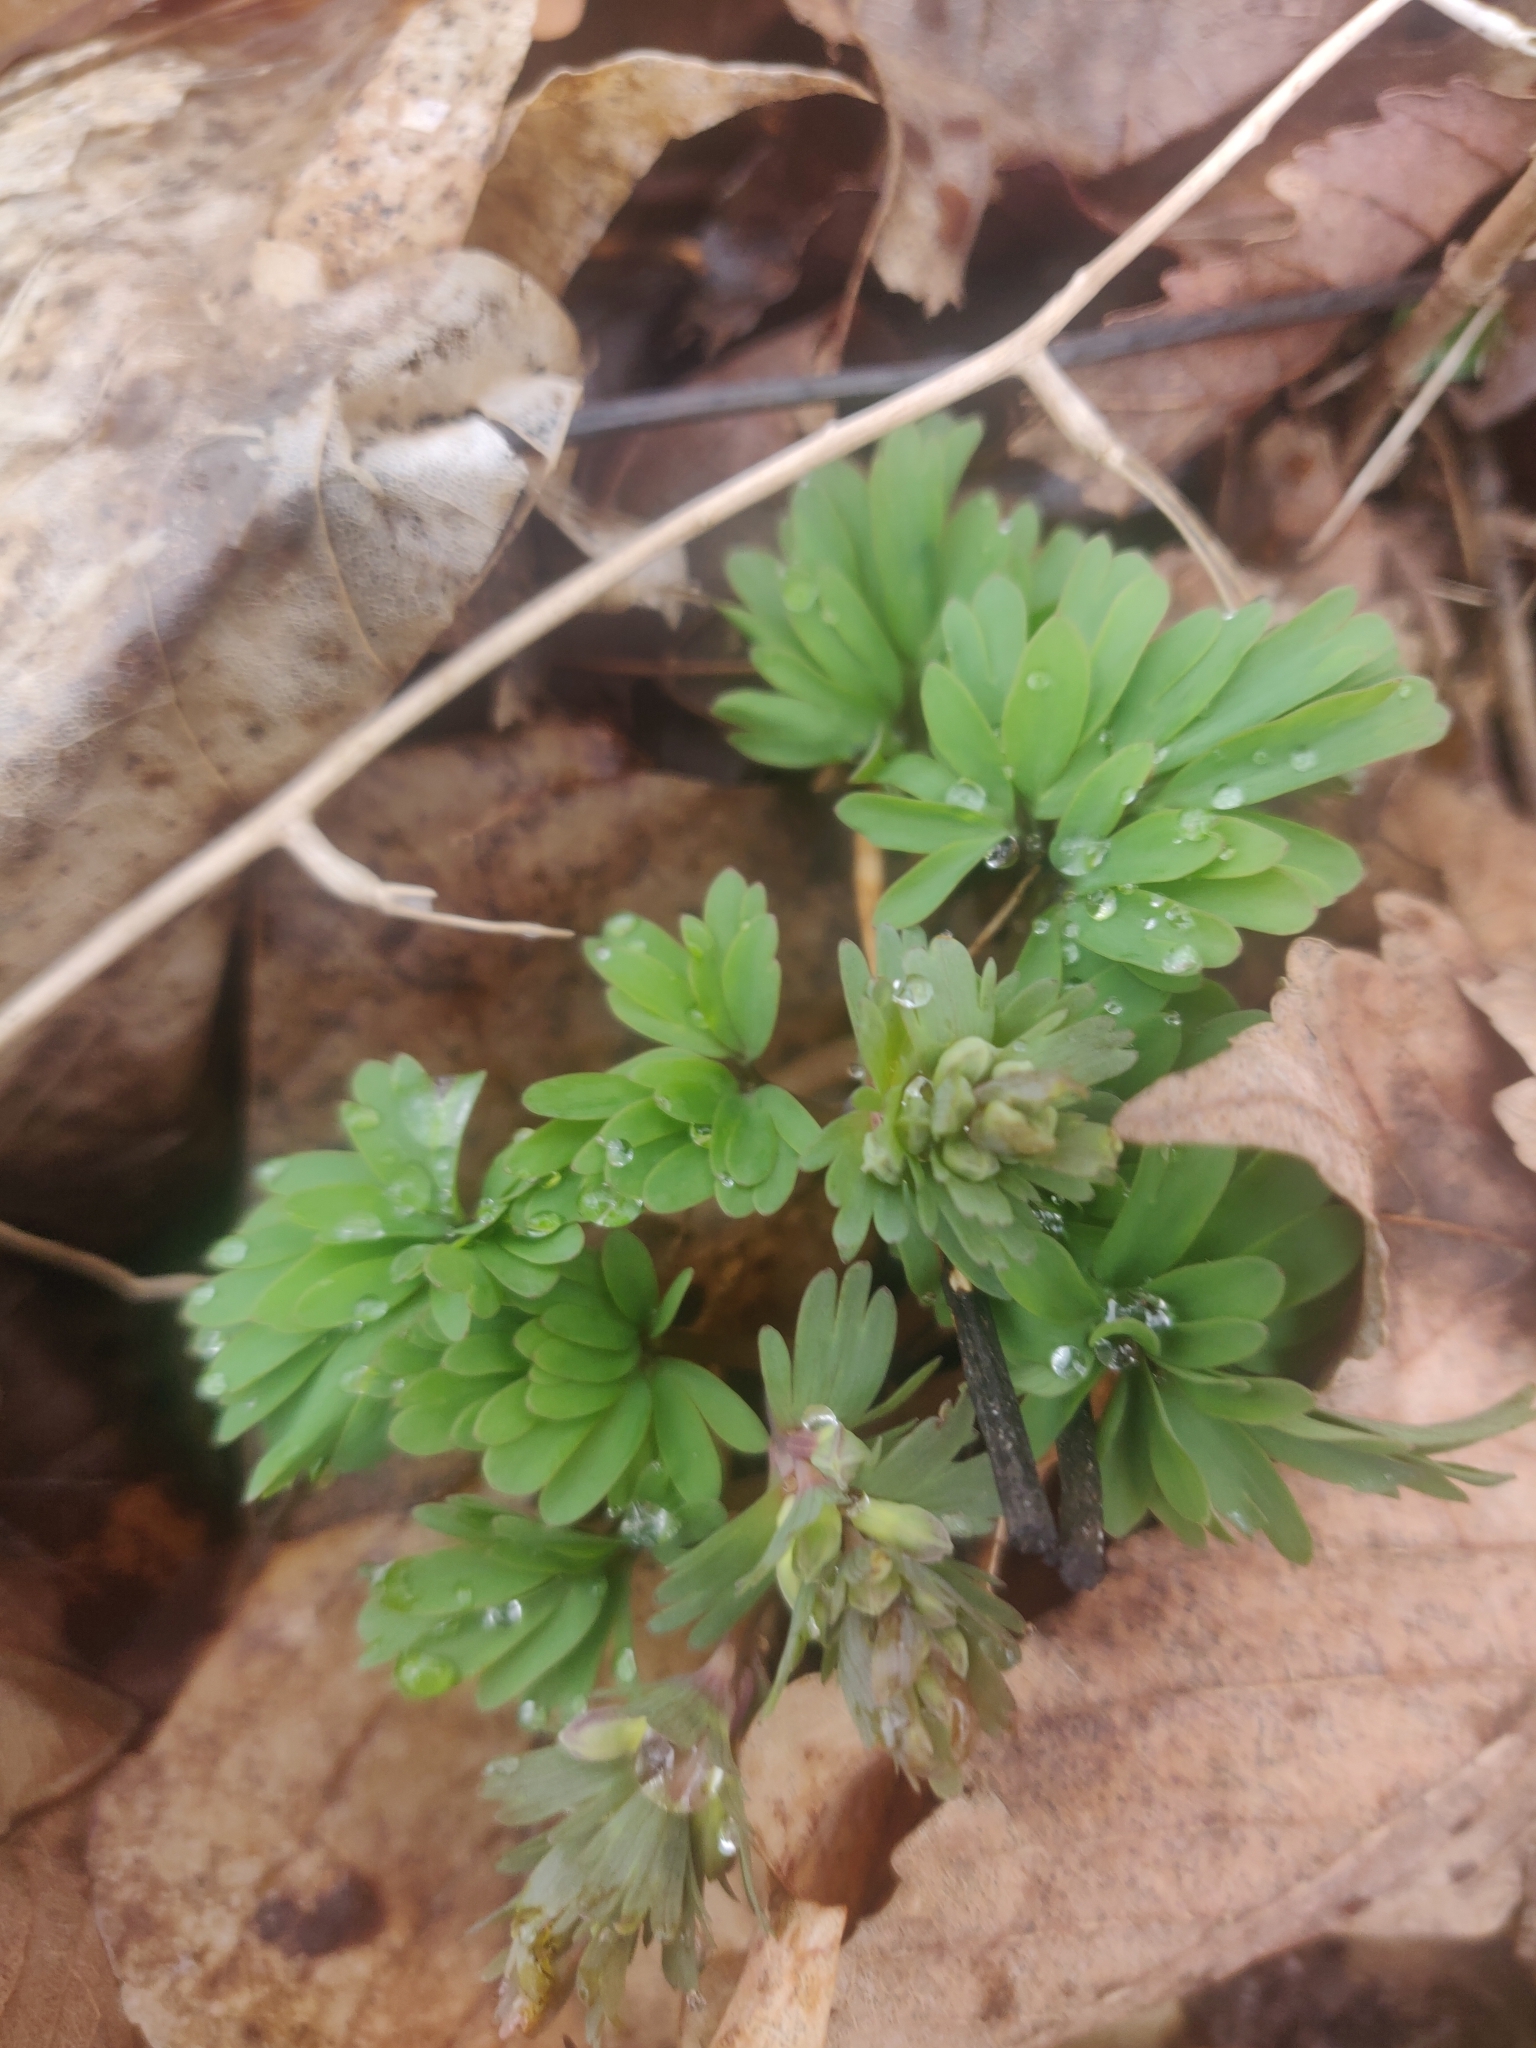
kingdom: Plantae
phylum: Tracheophyta
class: Magnoliopsida
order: Ranunculales
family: Papaveraceae
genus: Corydalis
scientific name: Corydalis solida
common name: Bird-in-a-bush
